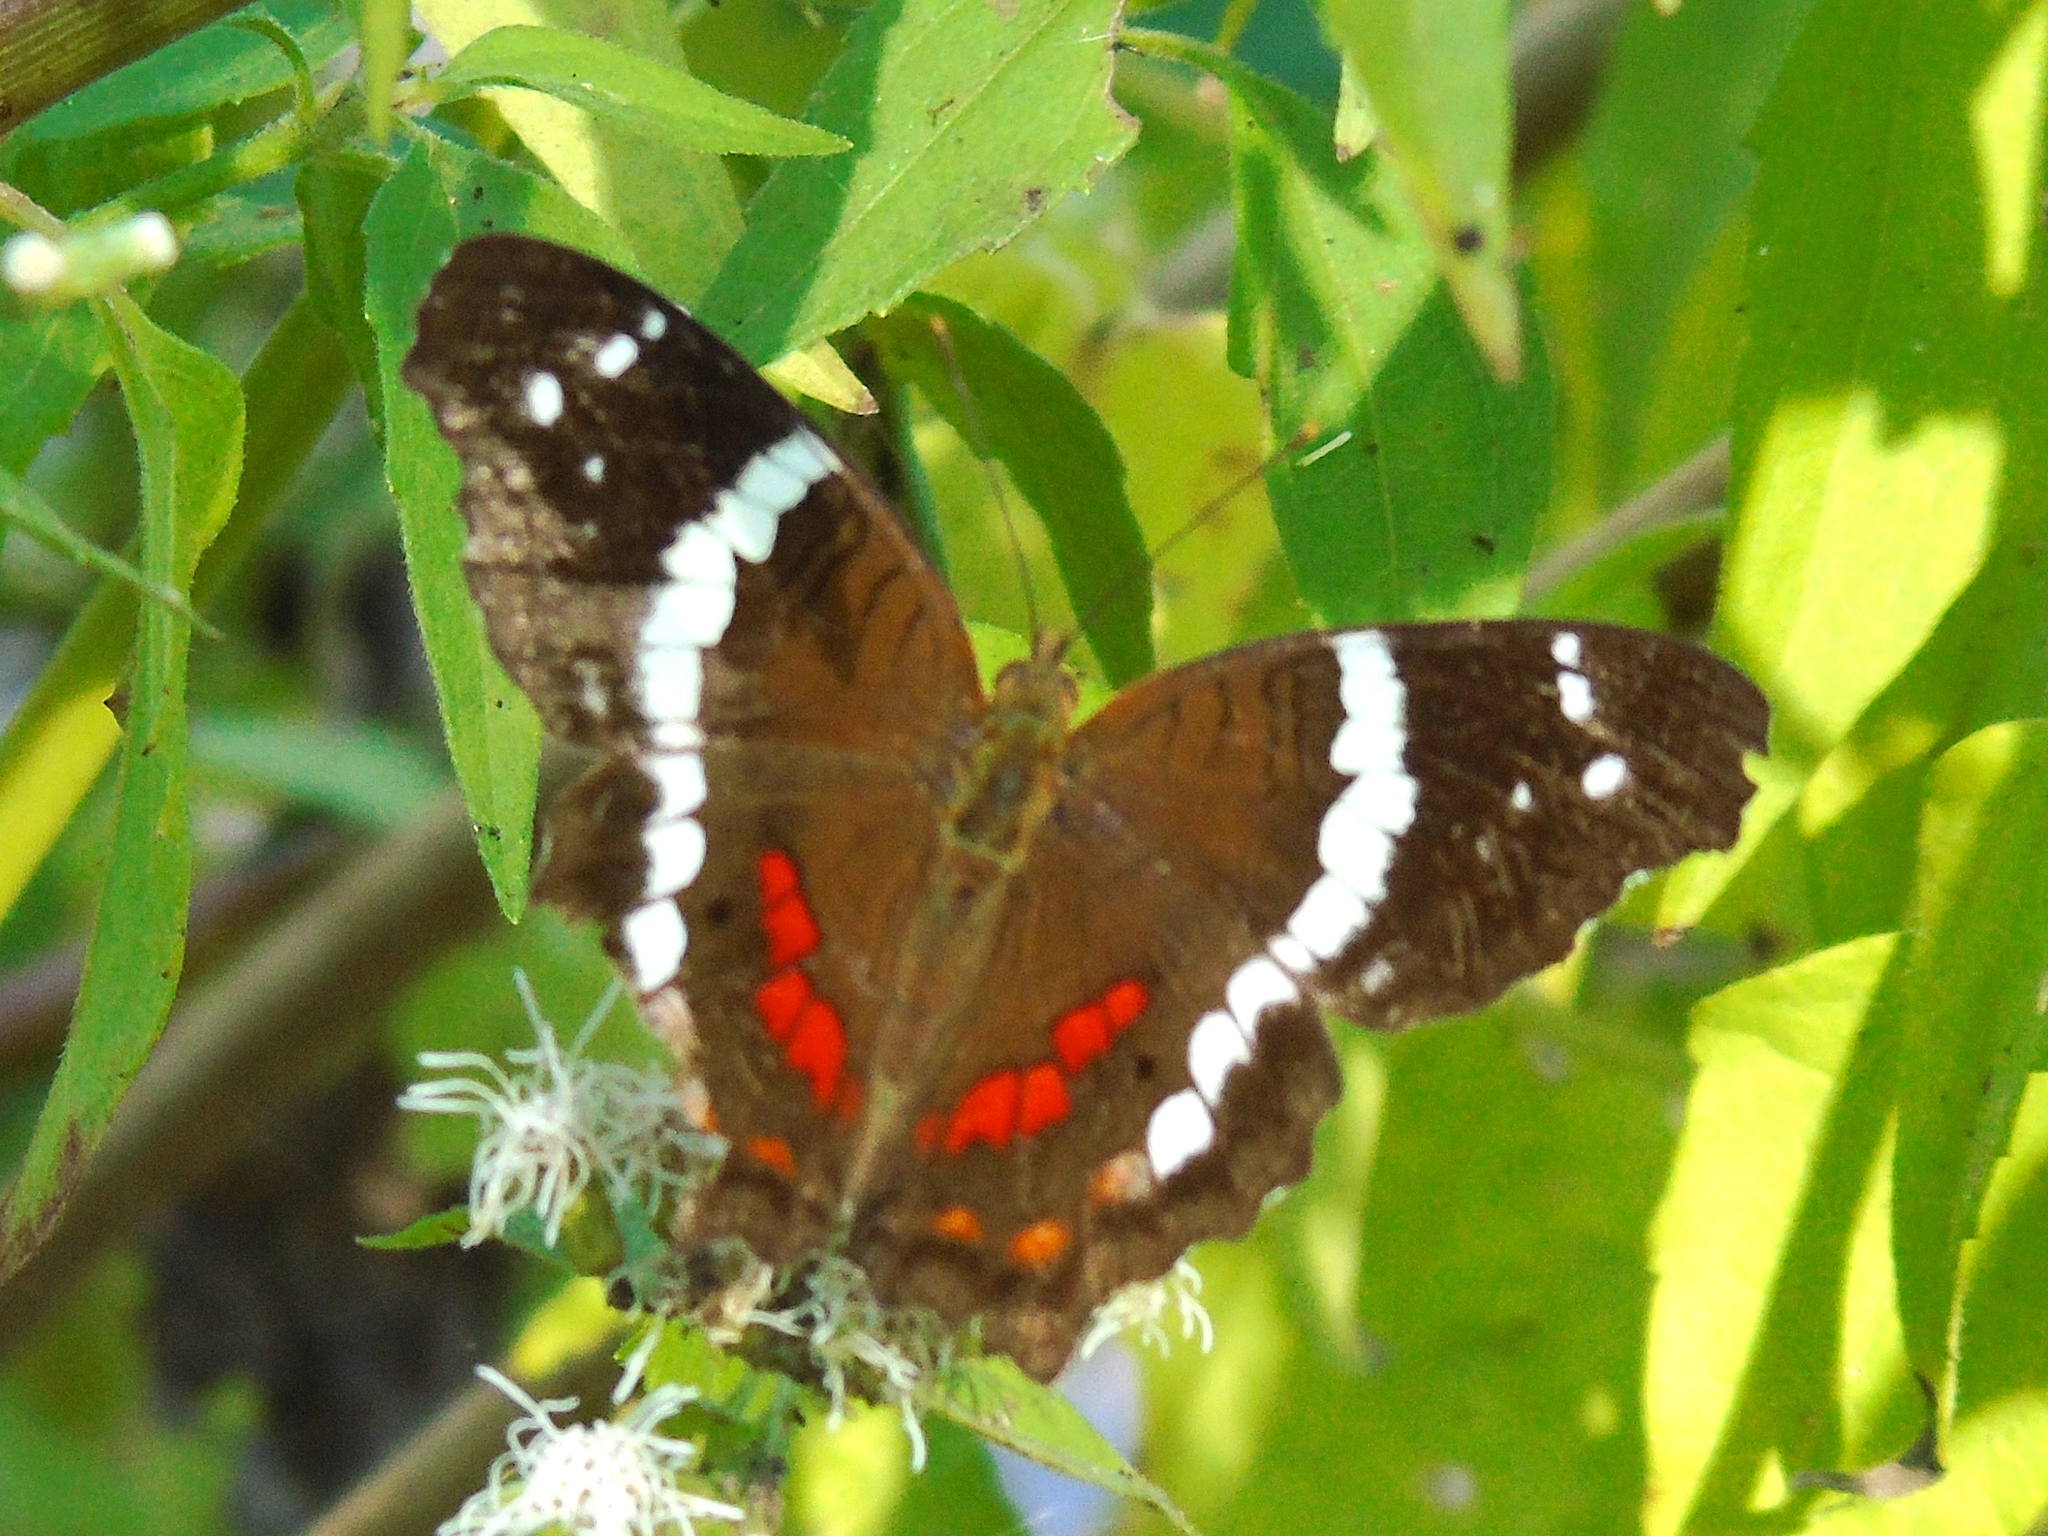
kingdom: Animalia
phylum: Arthropoda
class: Insecta
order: Lepidoptera
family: Nymphalidae
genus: Anartia
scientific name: Anartia fatima
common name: Banded peacock
